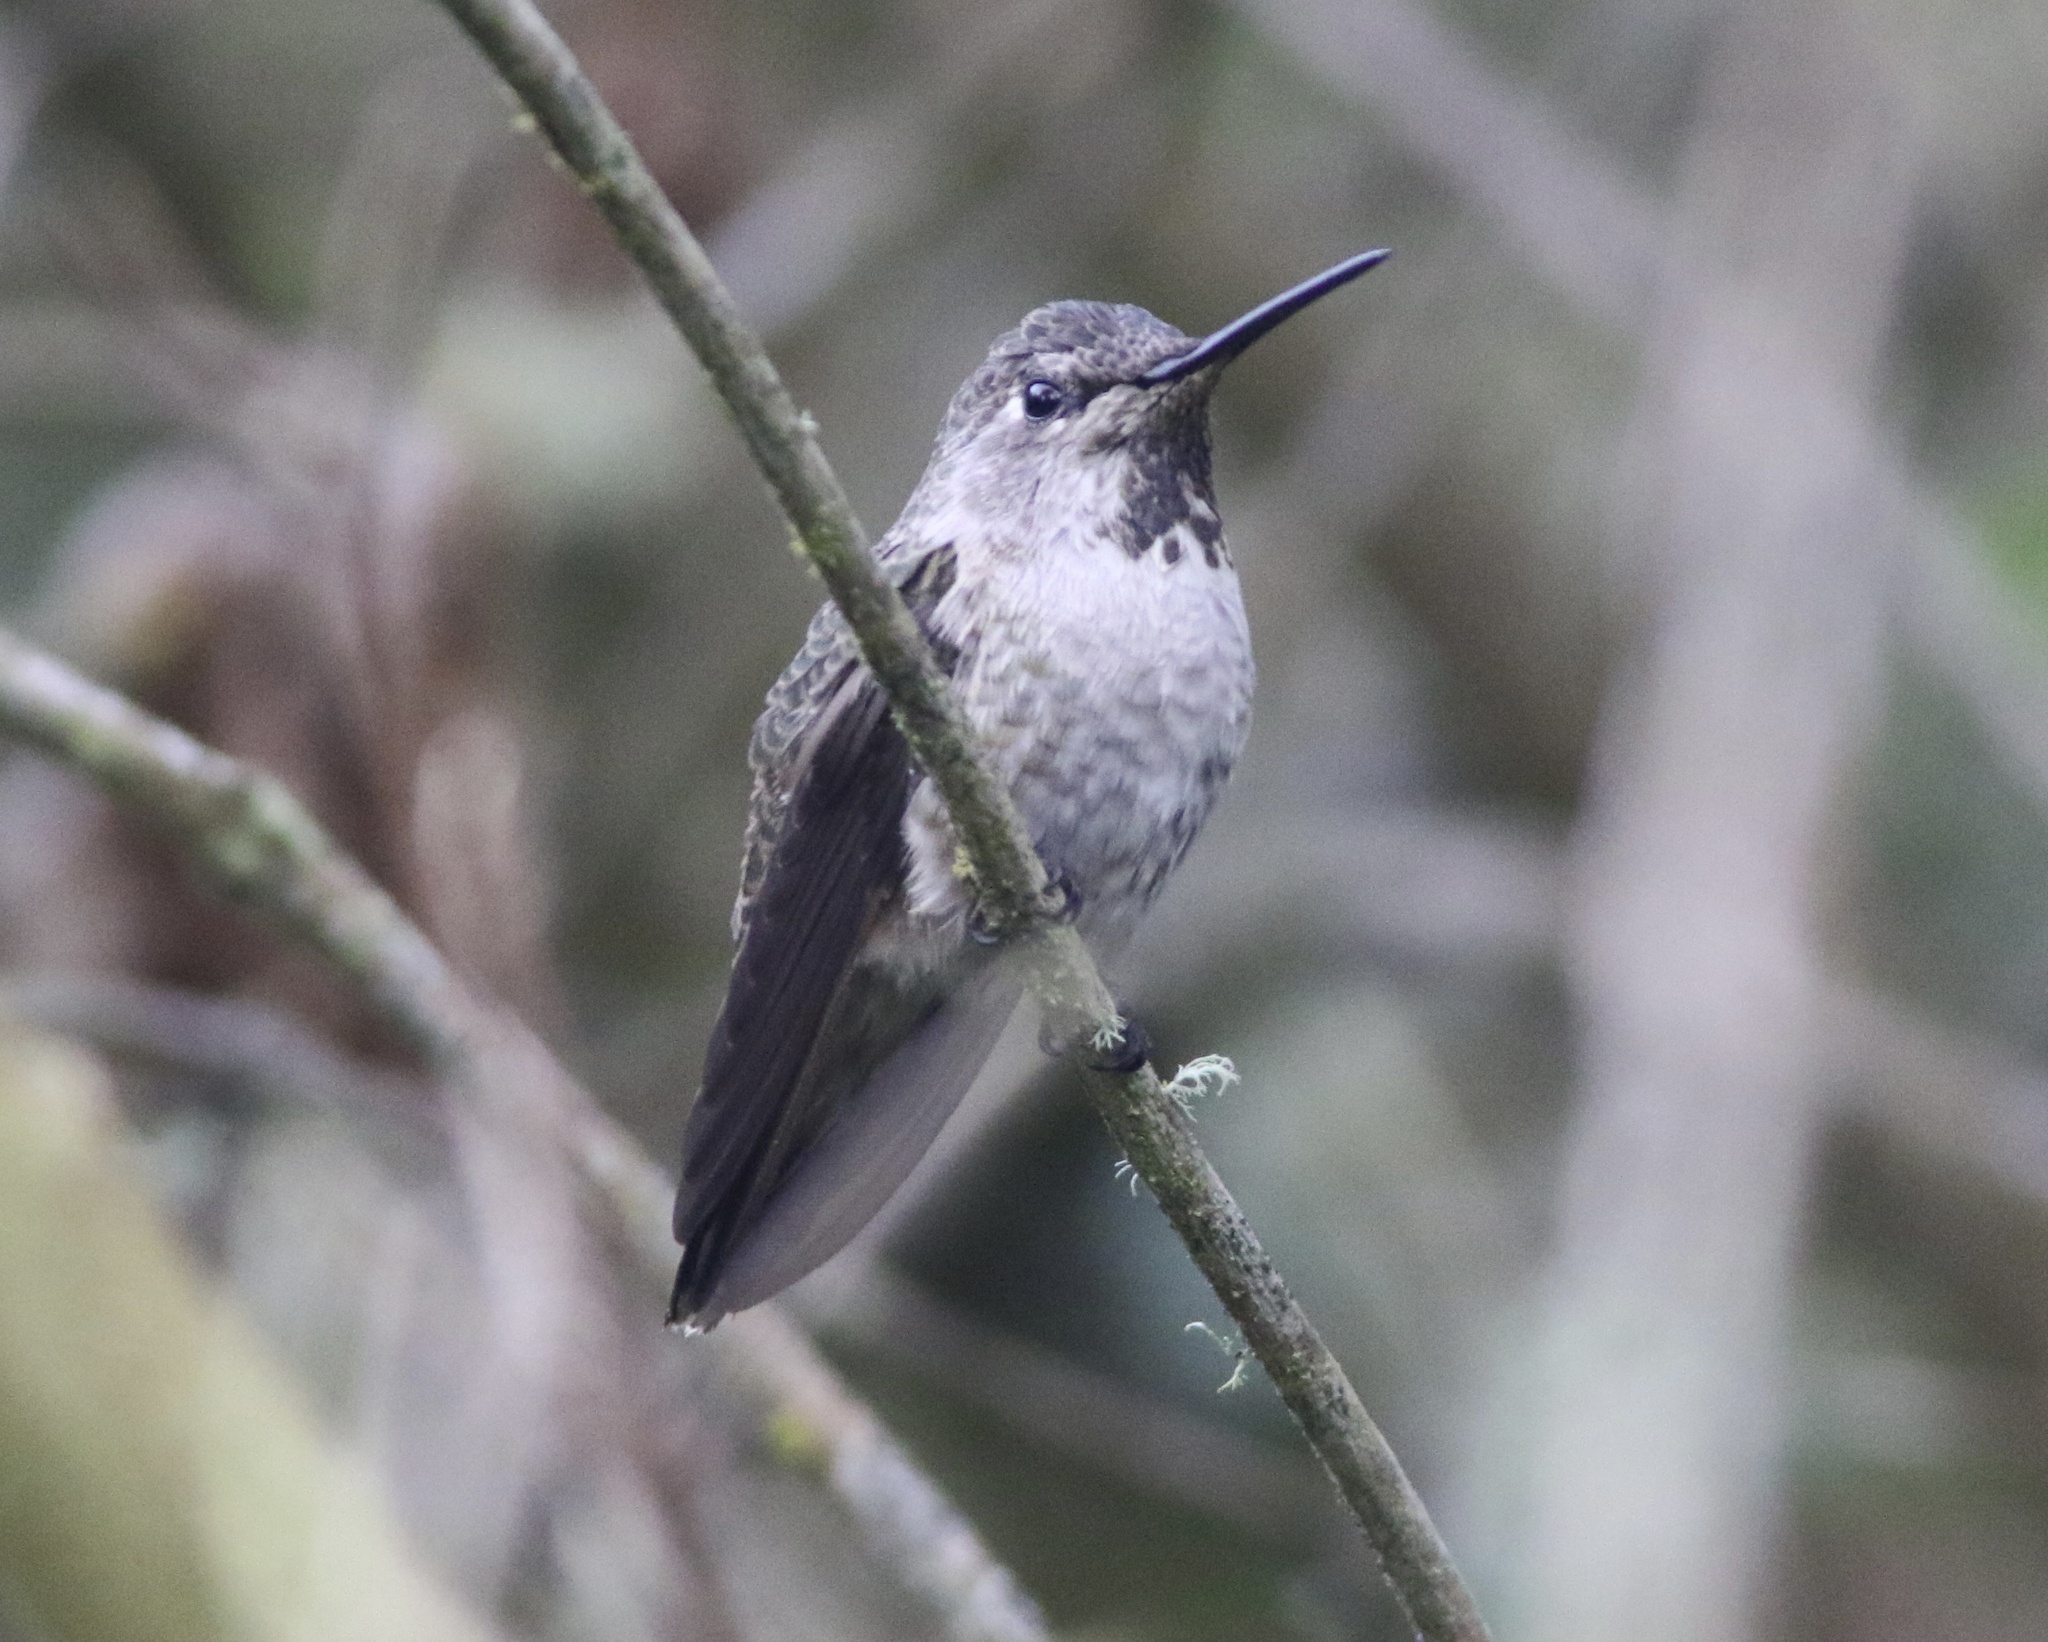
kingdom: Animalia
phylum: Chordata
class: Aves
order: Apodiformes
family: Trochilidae
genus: Calypte
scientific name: Calypte anna
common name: Anna's hummingbird
